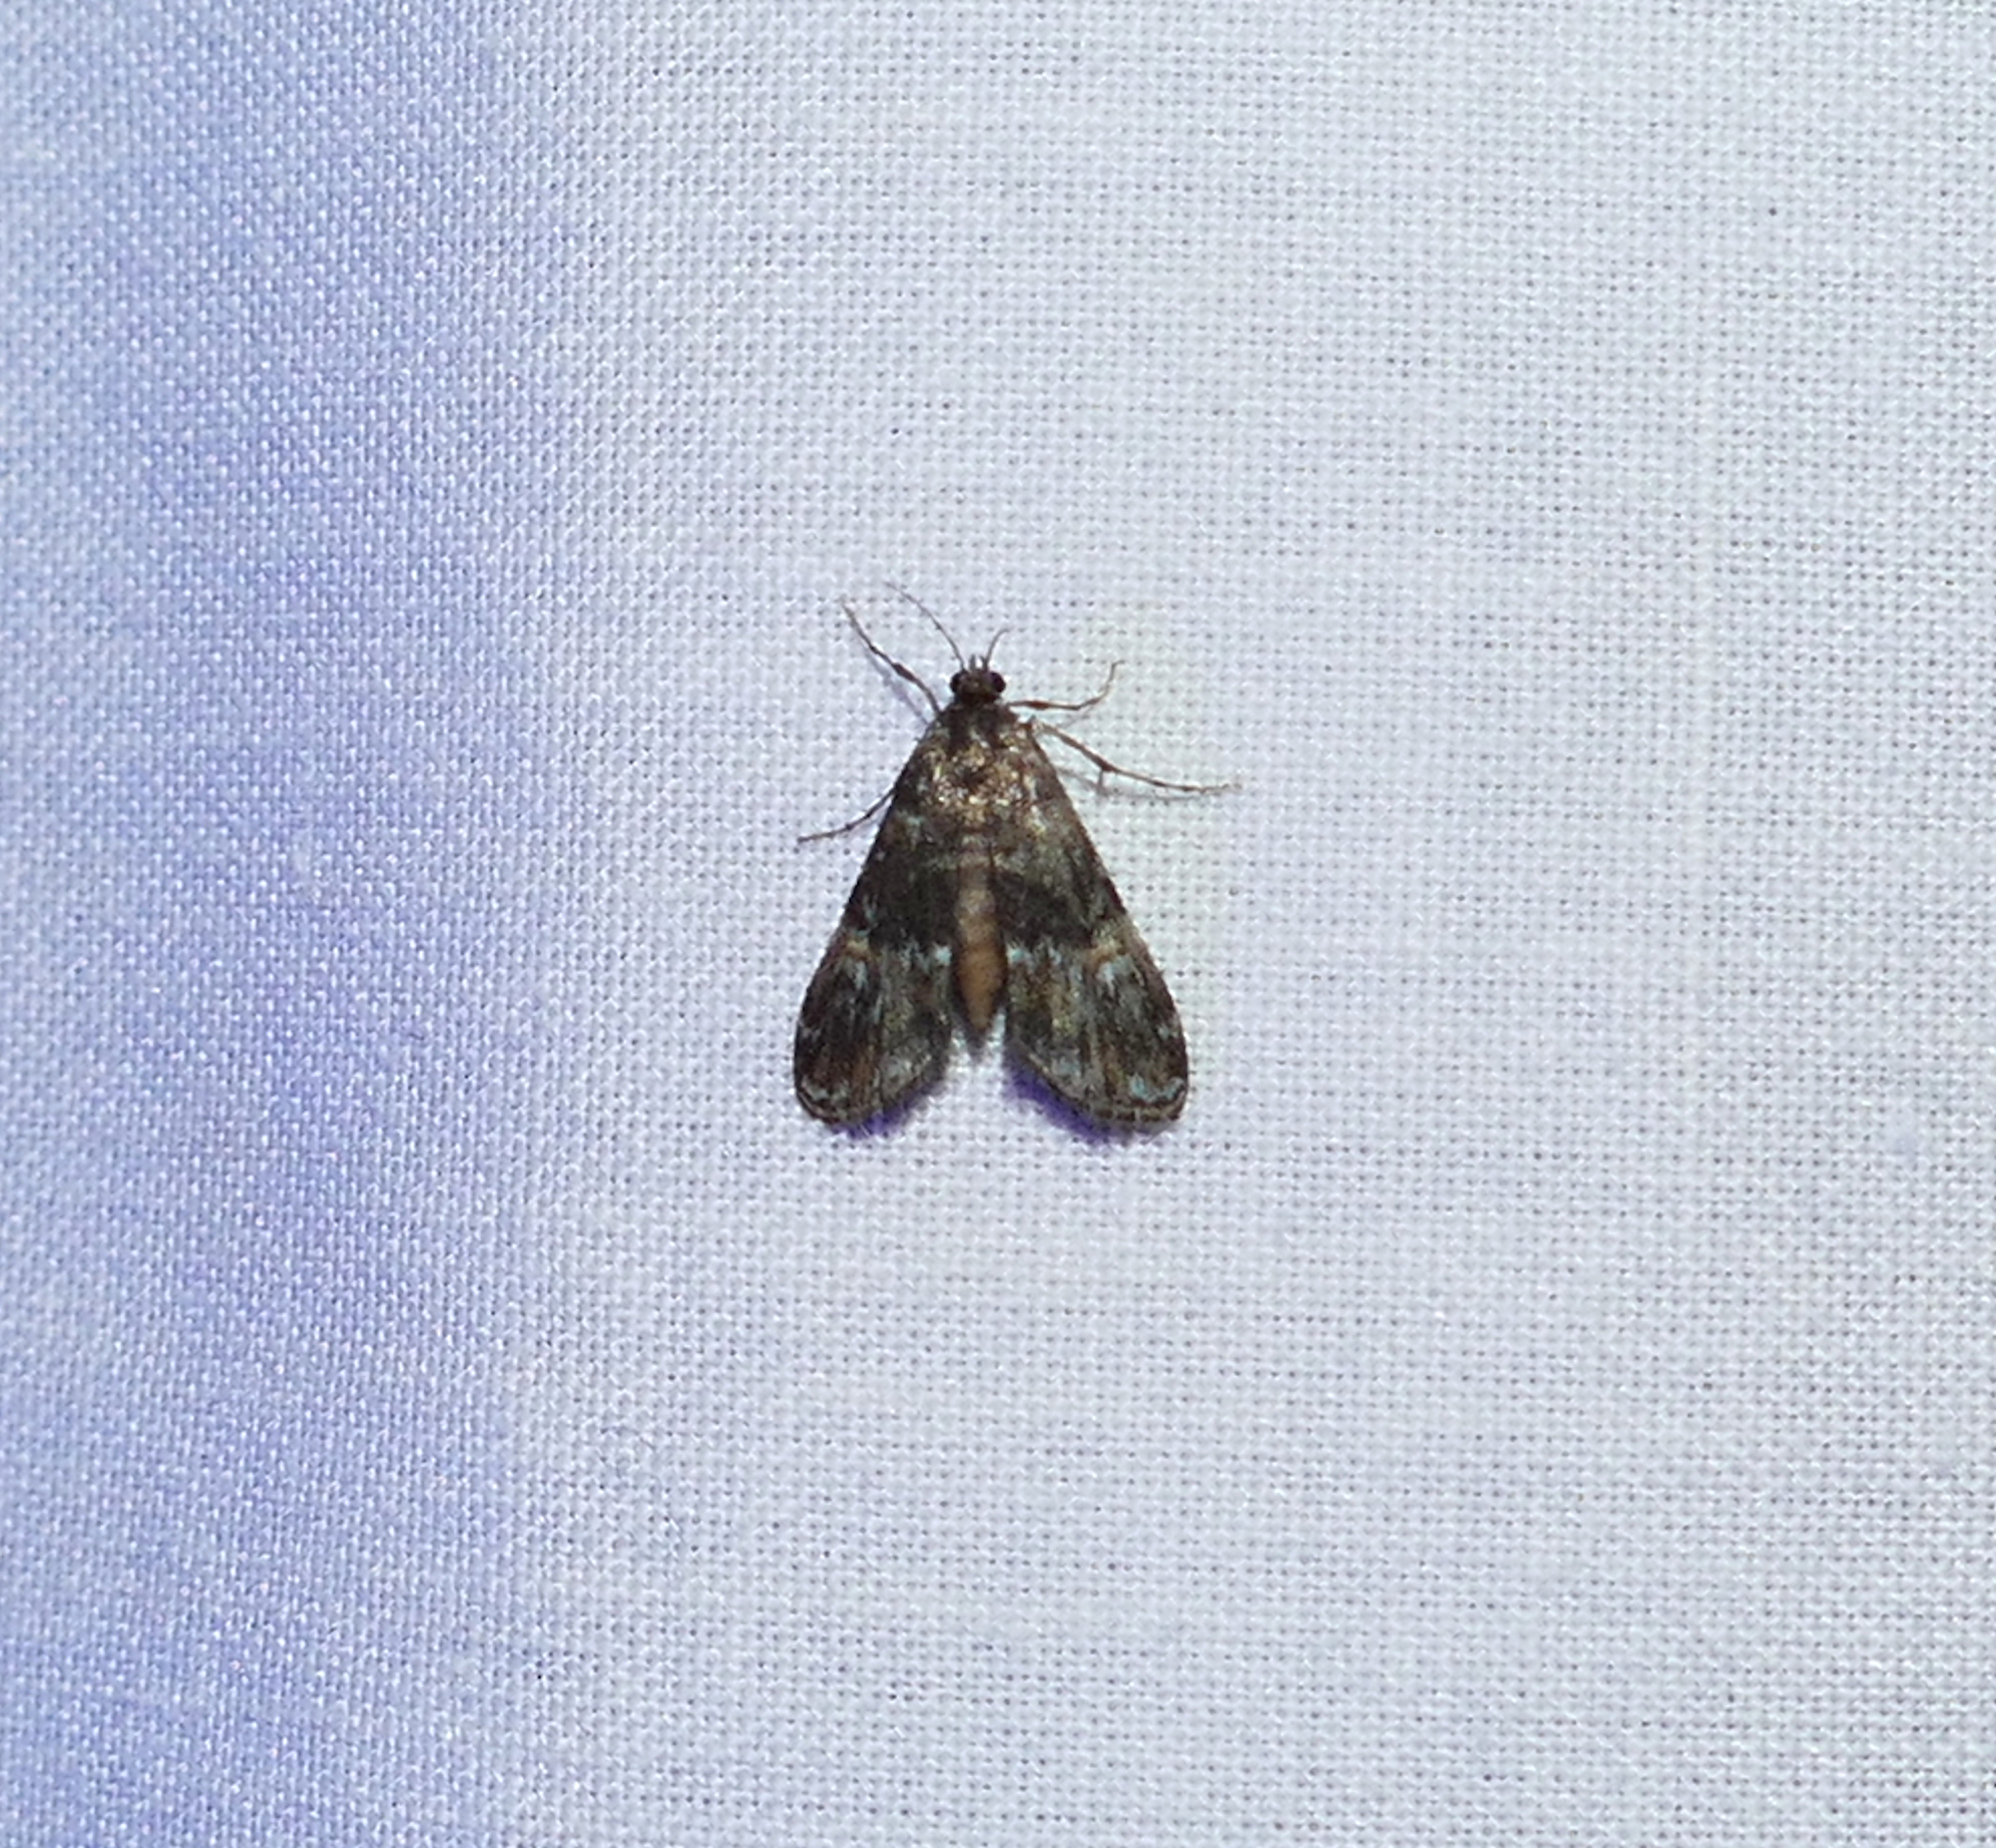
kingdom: Animalia
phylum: Arthropoda
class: Insecta
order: Lepidoptera
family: Crambidae
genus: Elophila
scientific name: Elophila obliteralis
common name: Waterlily leafcutter moth
